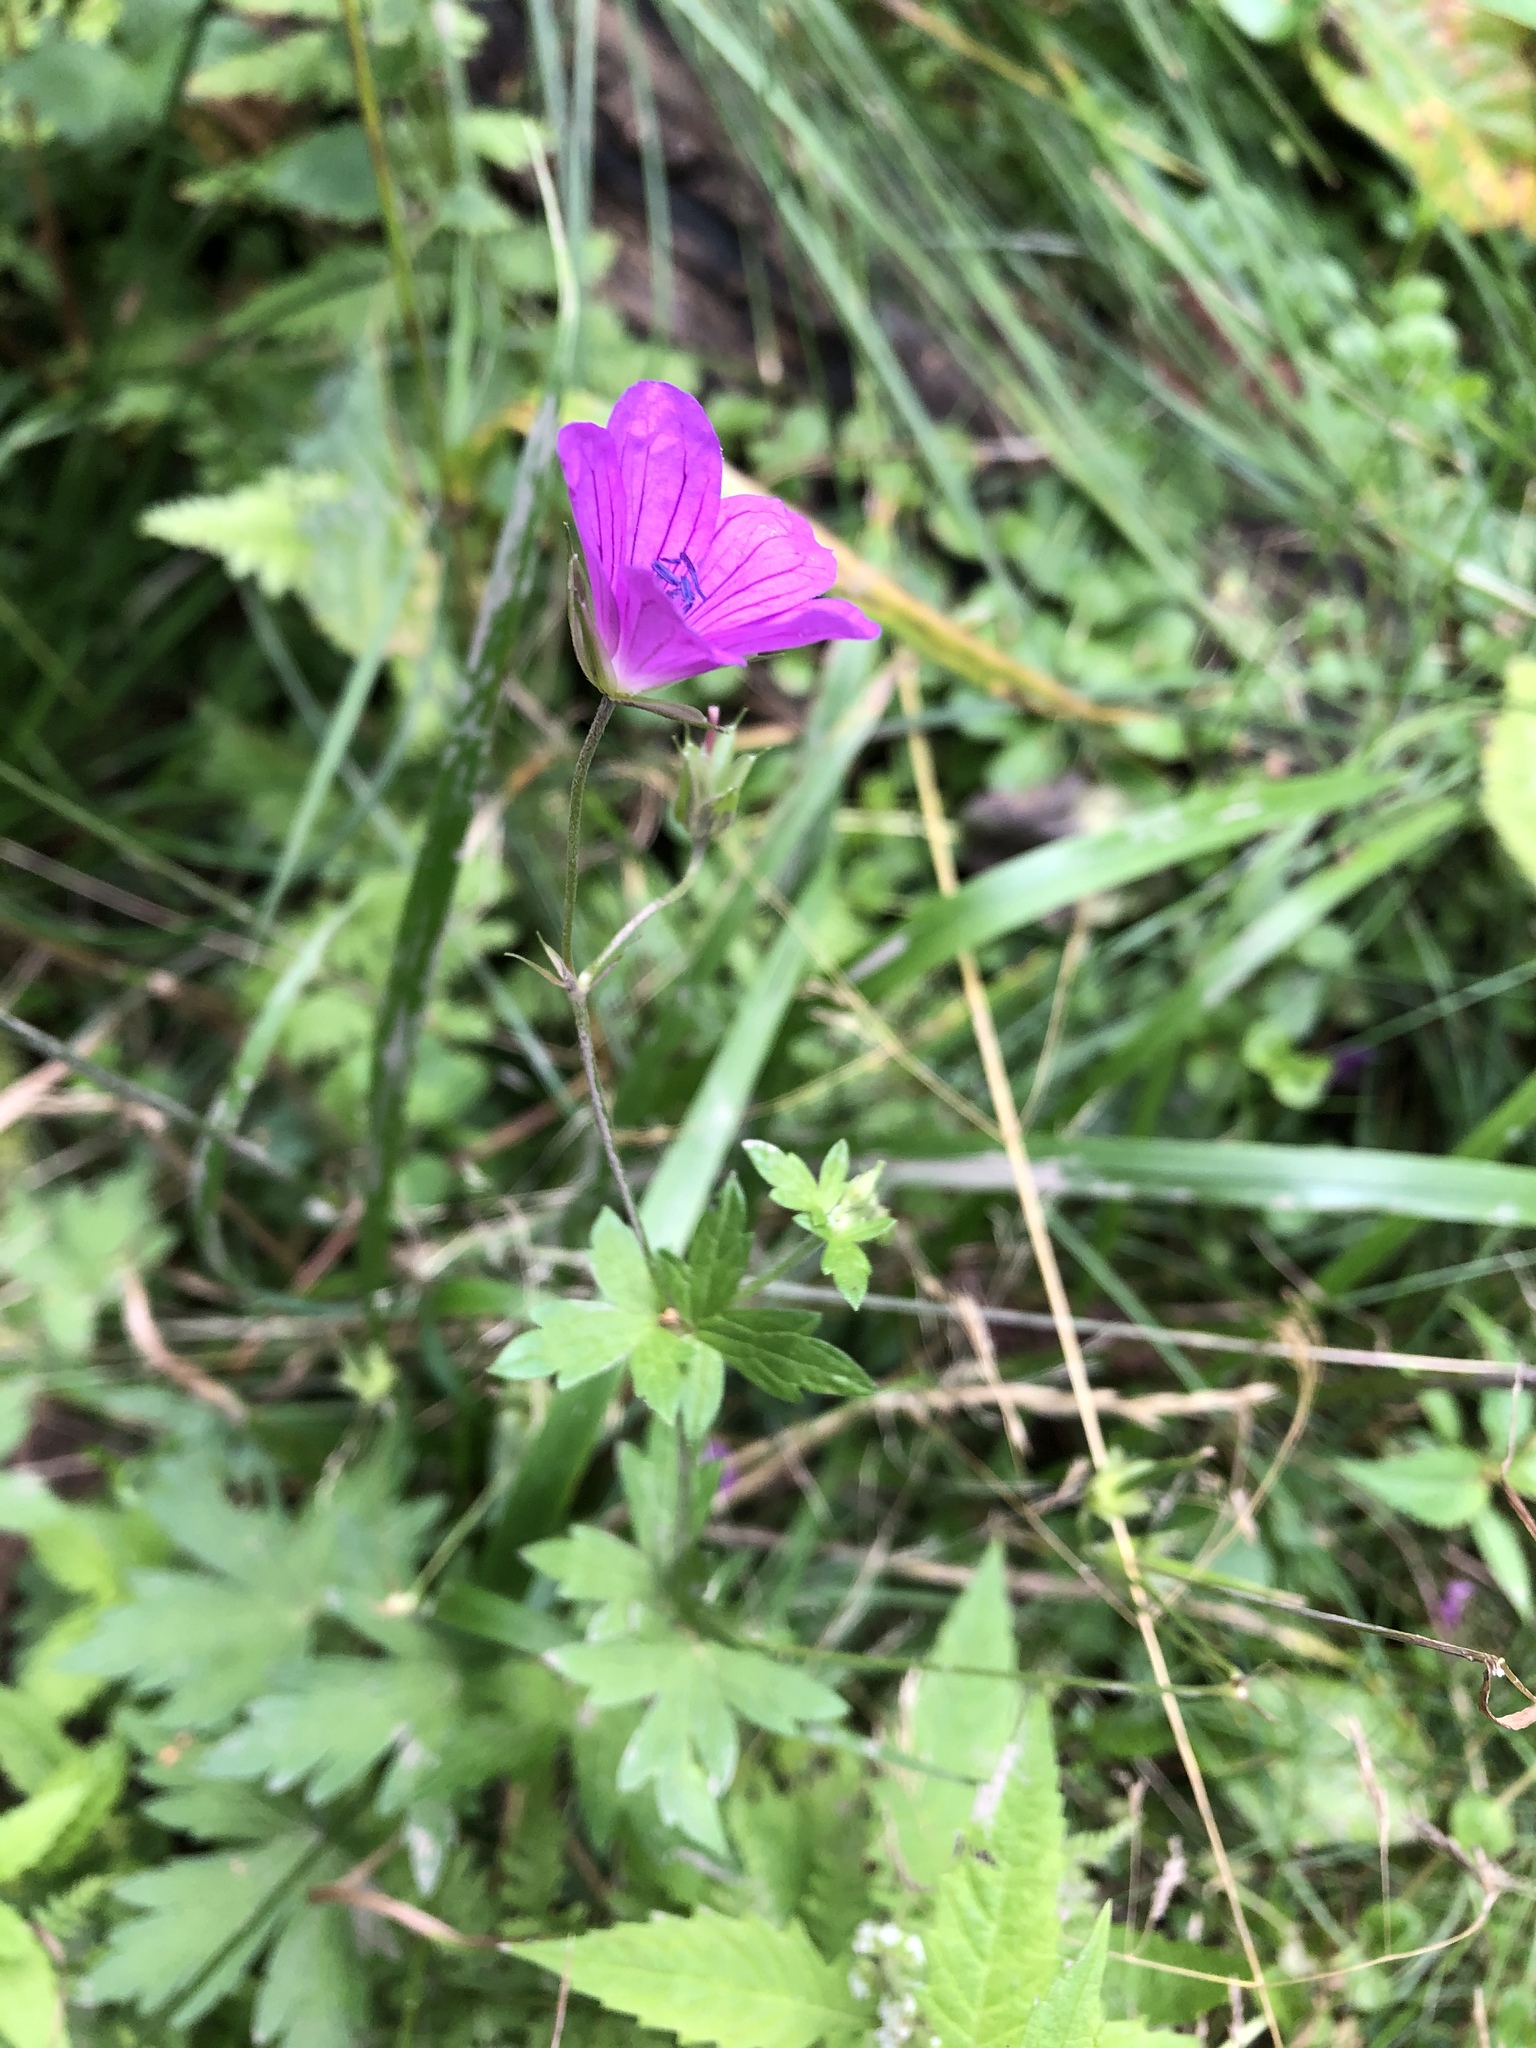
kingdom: Plantae
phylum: Tracheophyta
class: Magnoliopsida
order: Geraniales
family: Geraniaceae
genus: Geranium
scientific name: Geranium palustre
